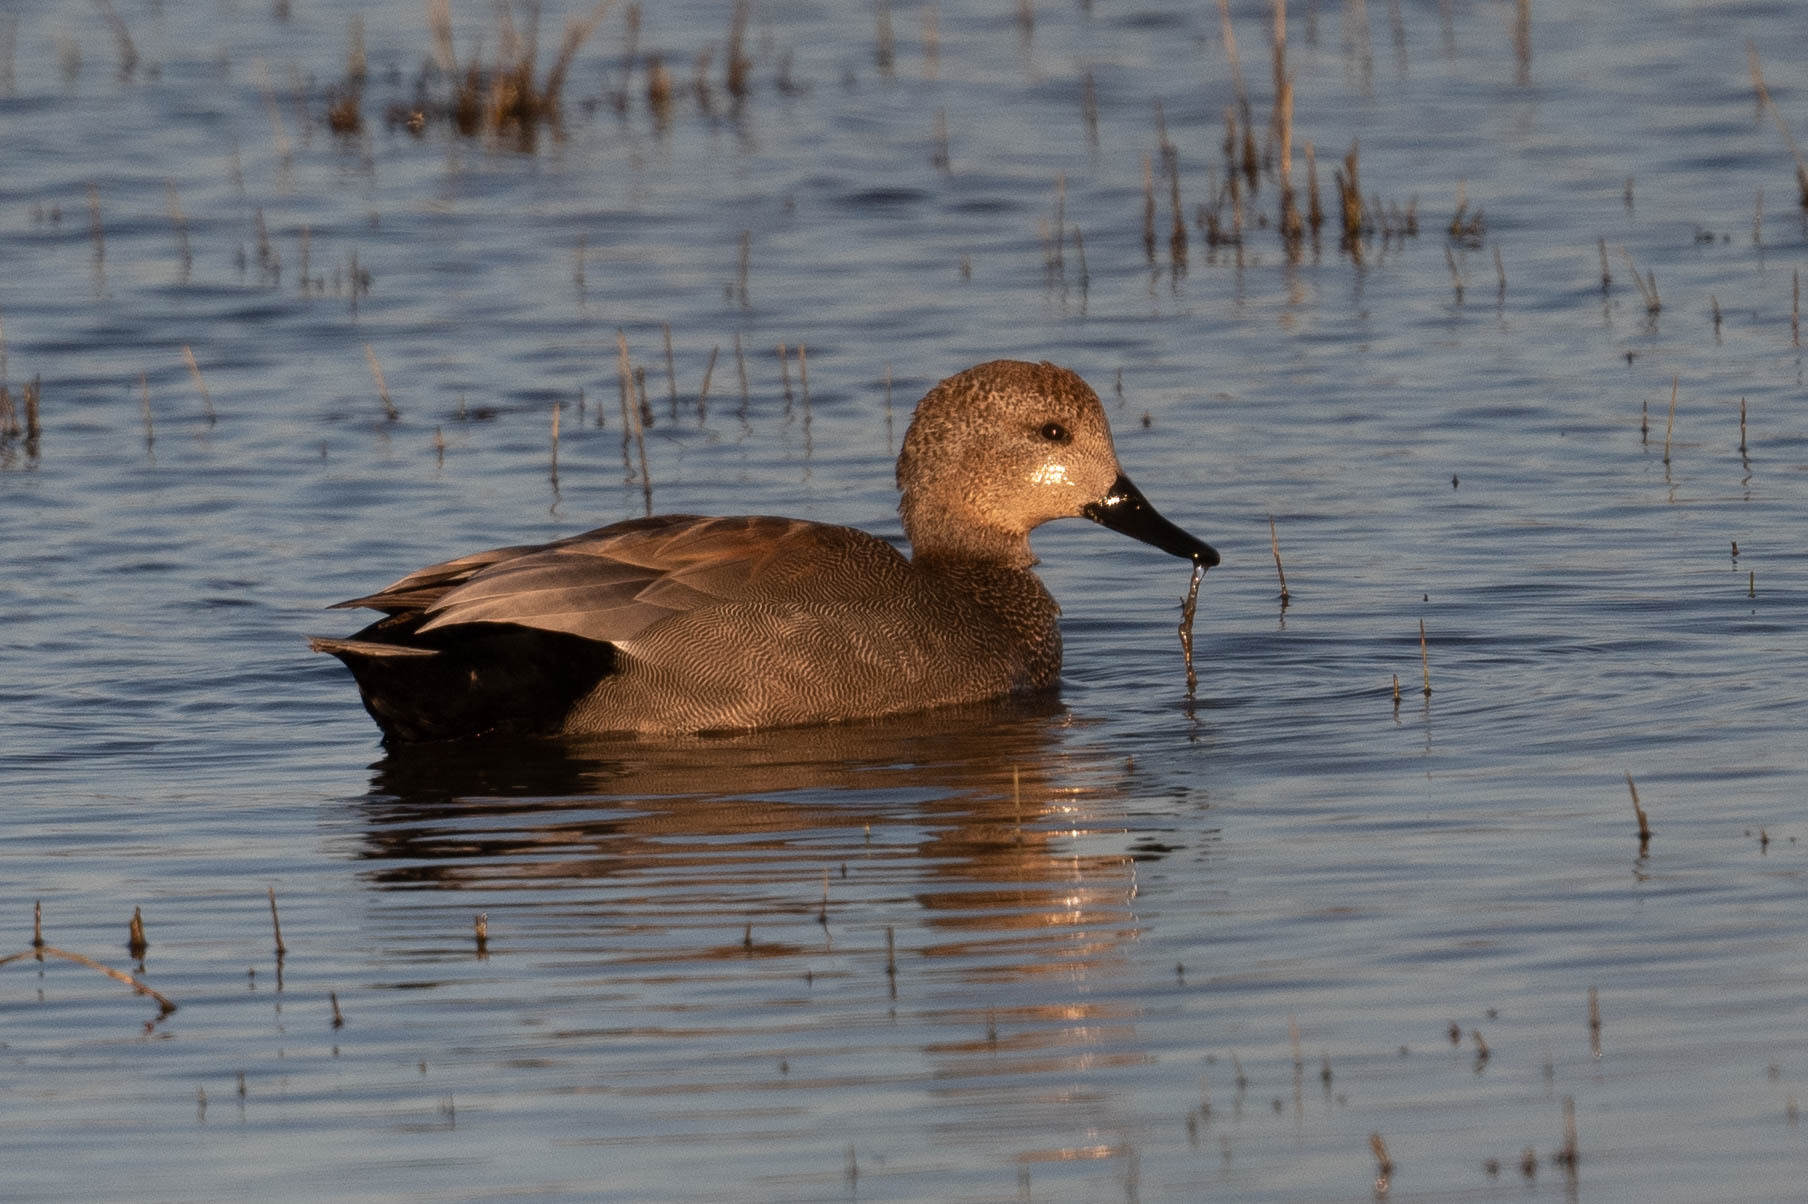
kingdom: Animalia
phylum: Chordata
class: Aves
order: Anseriformes
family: Anatidae
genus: Mareca
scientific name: Mareca strepera
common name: Gadwall
